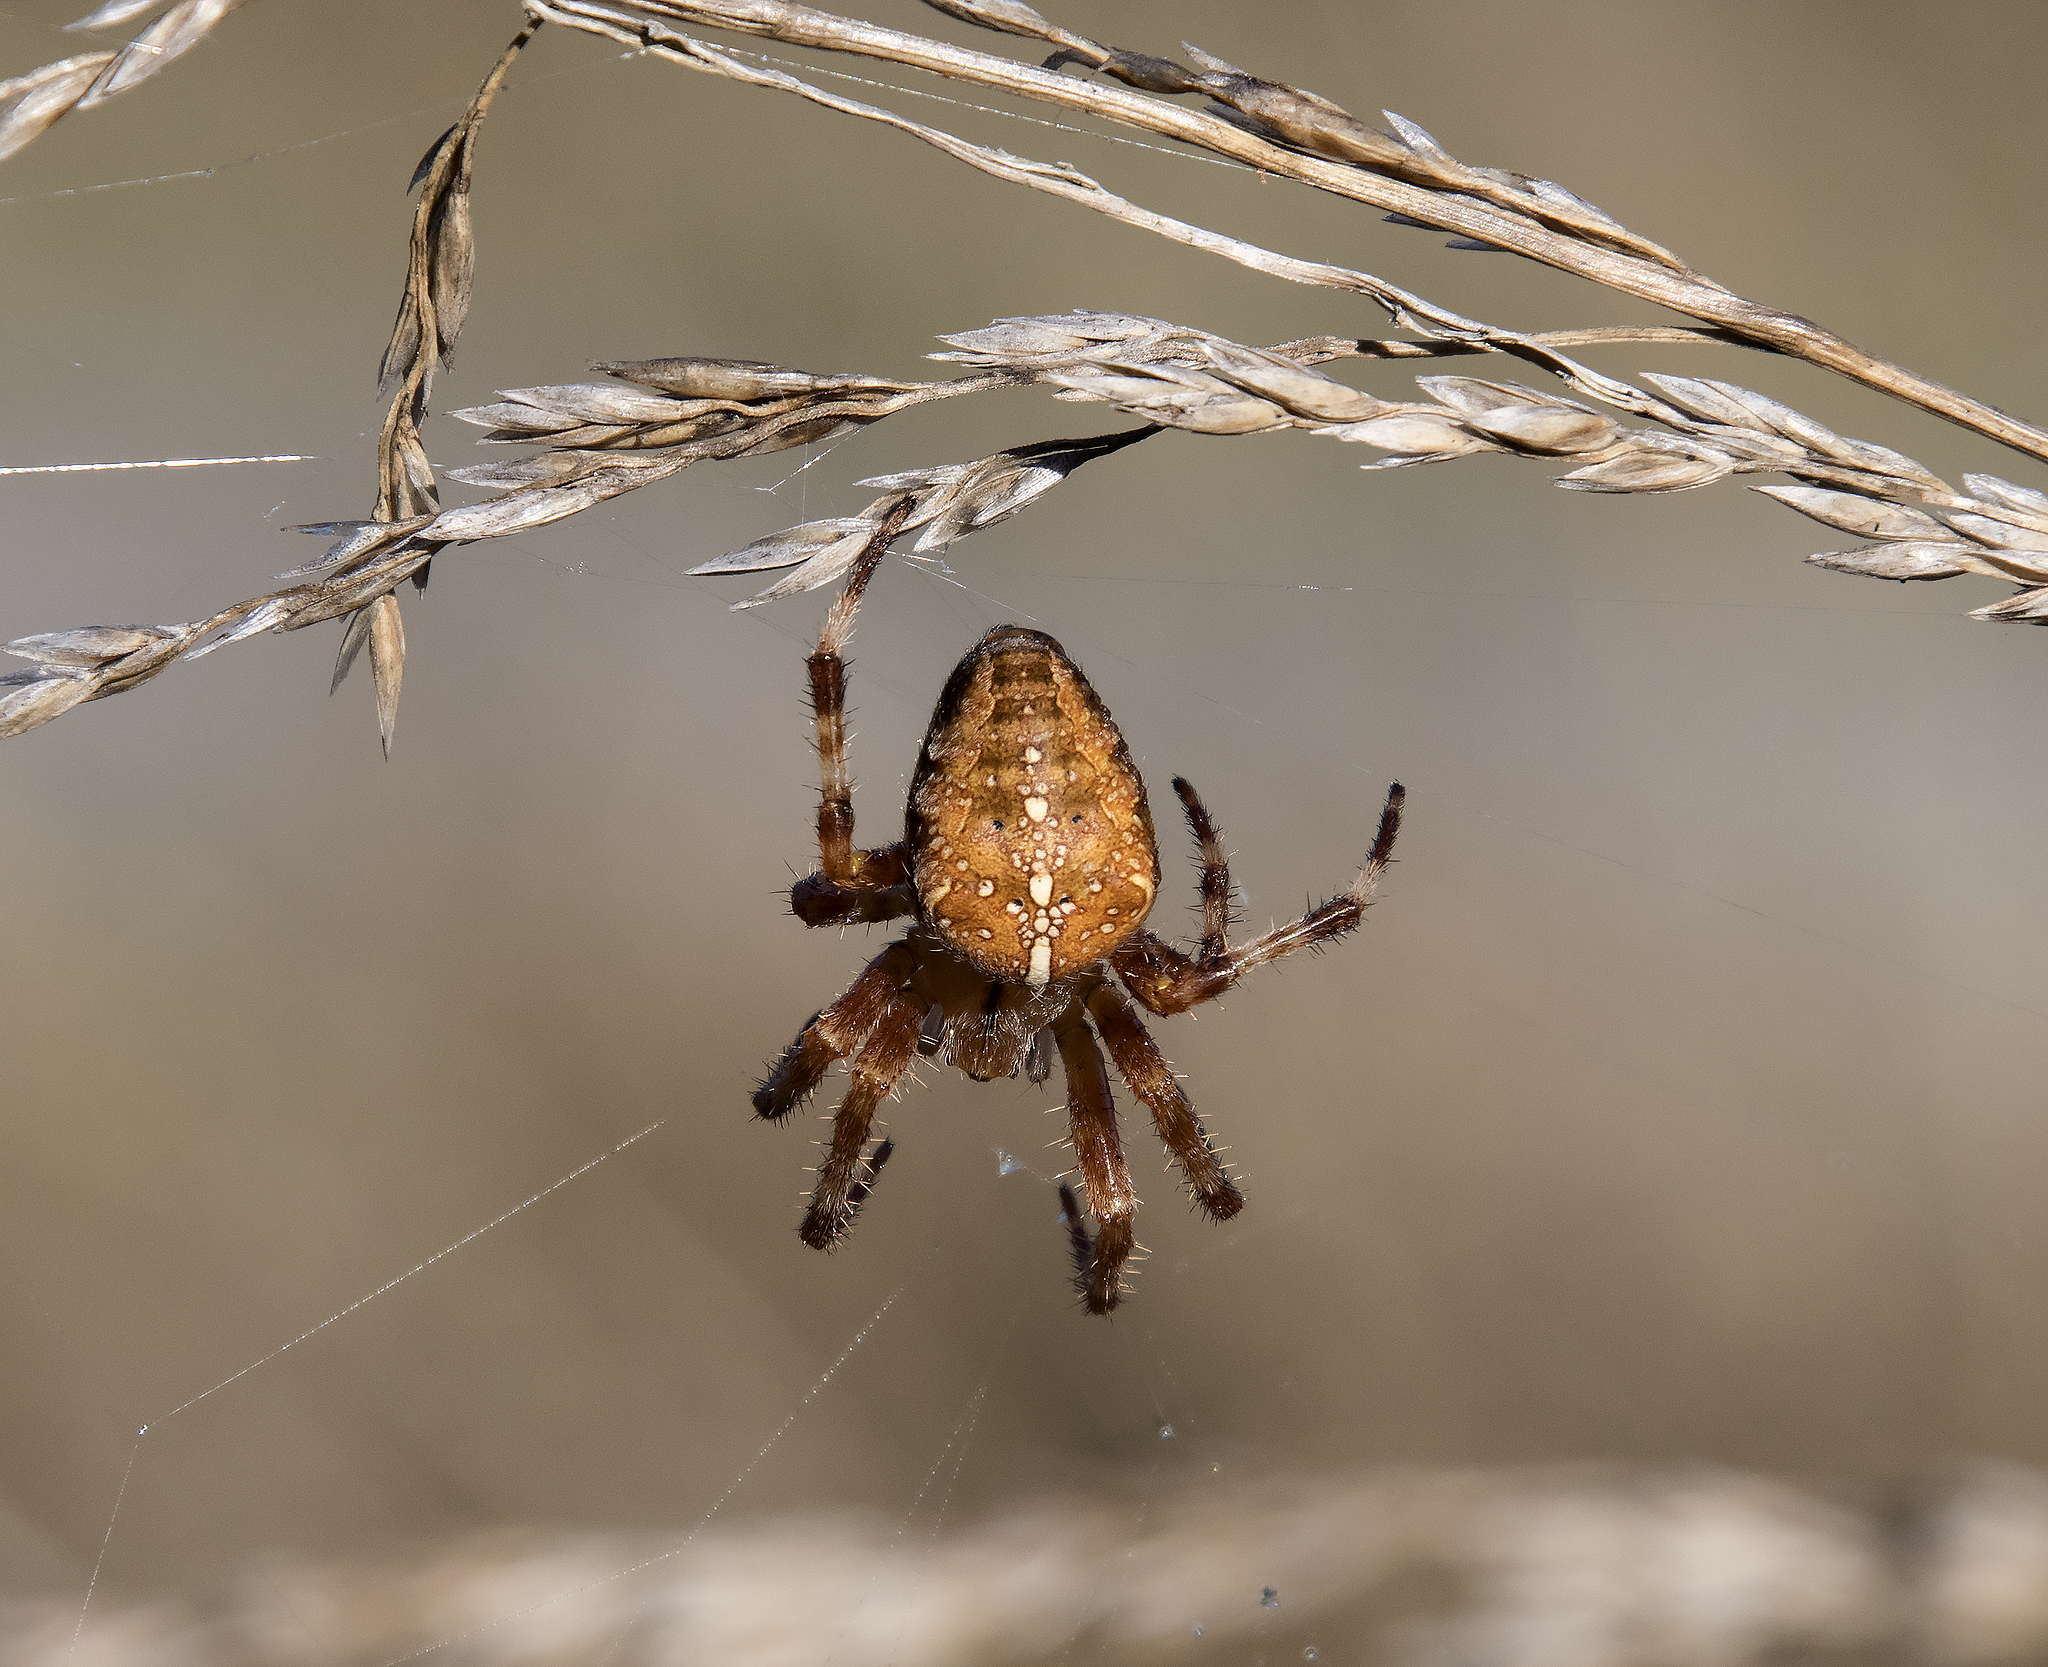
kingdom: Animalia
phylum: Arthropoda
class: Arachnida
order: Araneae
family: Araneidae
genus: Araneus
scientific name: Araneus diadematus
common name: Cross orbweaver
